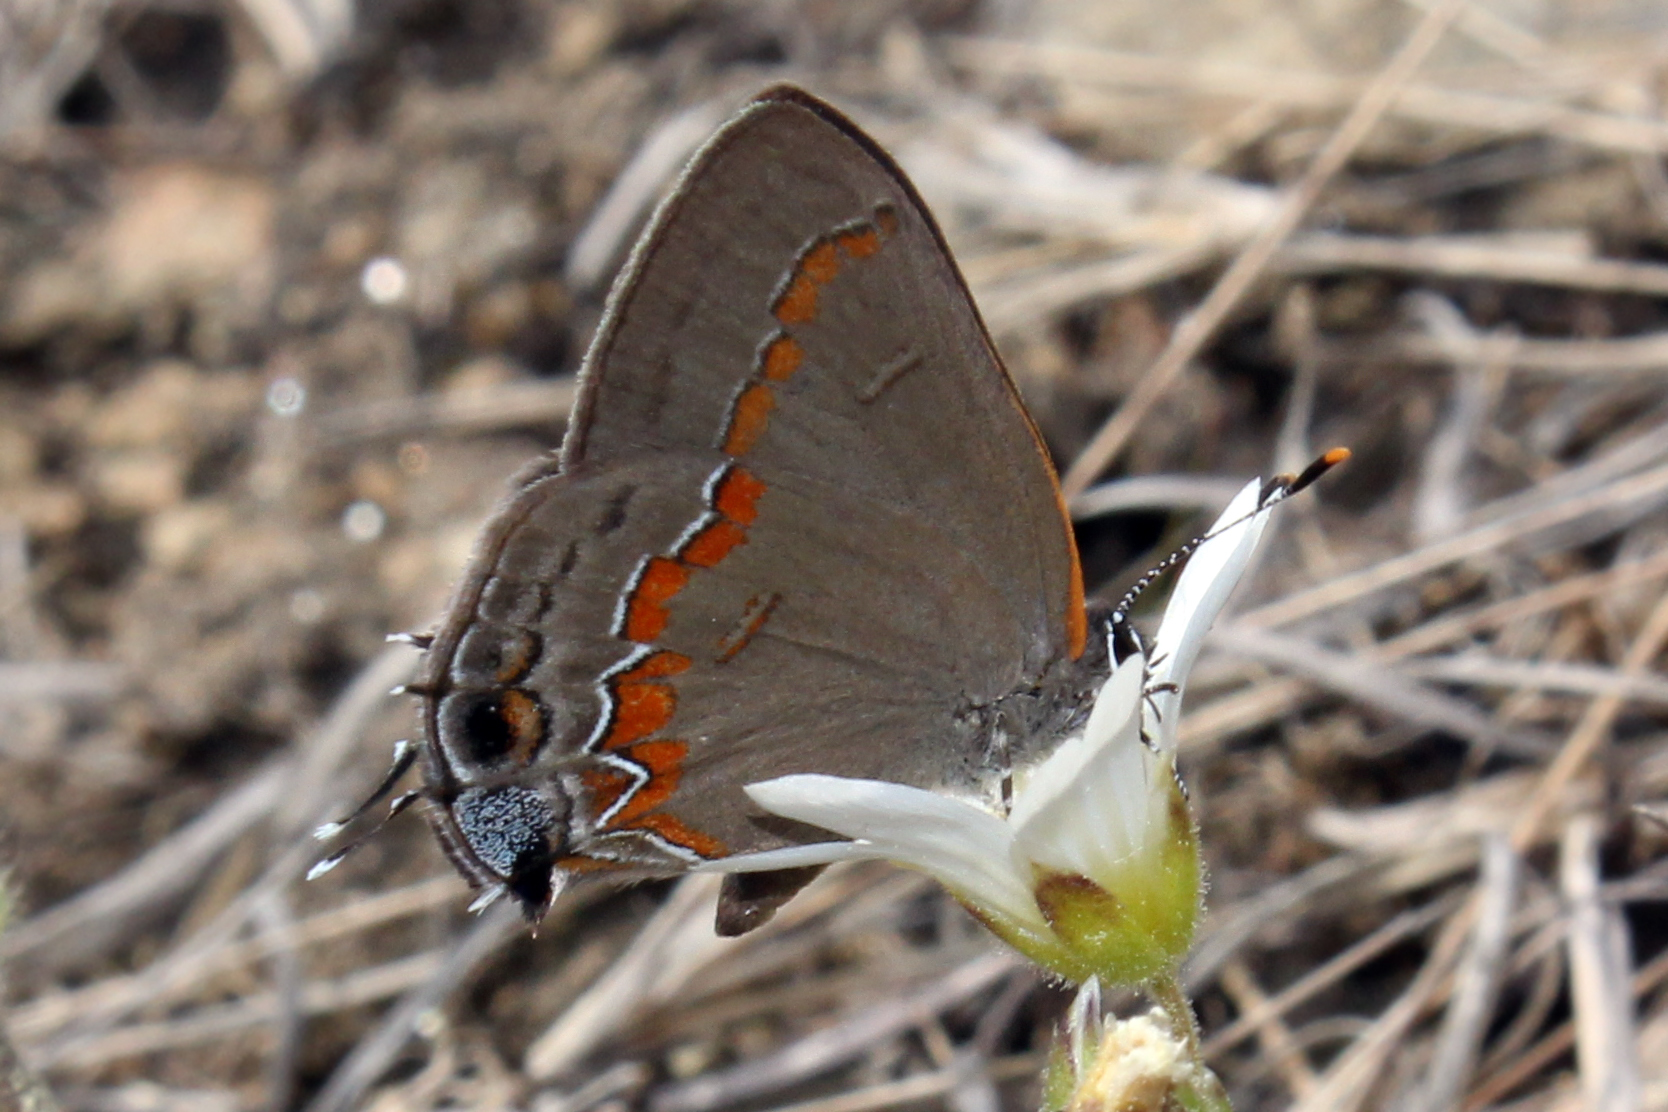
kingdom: Animalia
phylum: Arthropoda
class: Insecta
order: Lepidoptera
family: Lycaenidae
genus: Calycopis
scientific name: Calycopis cecrops
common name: Red-banded hairstreak
